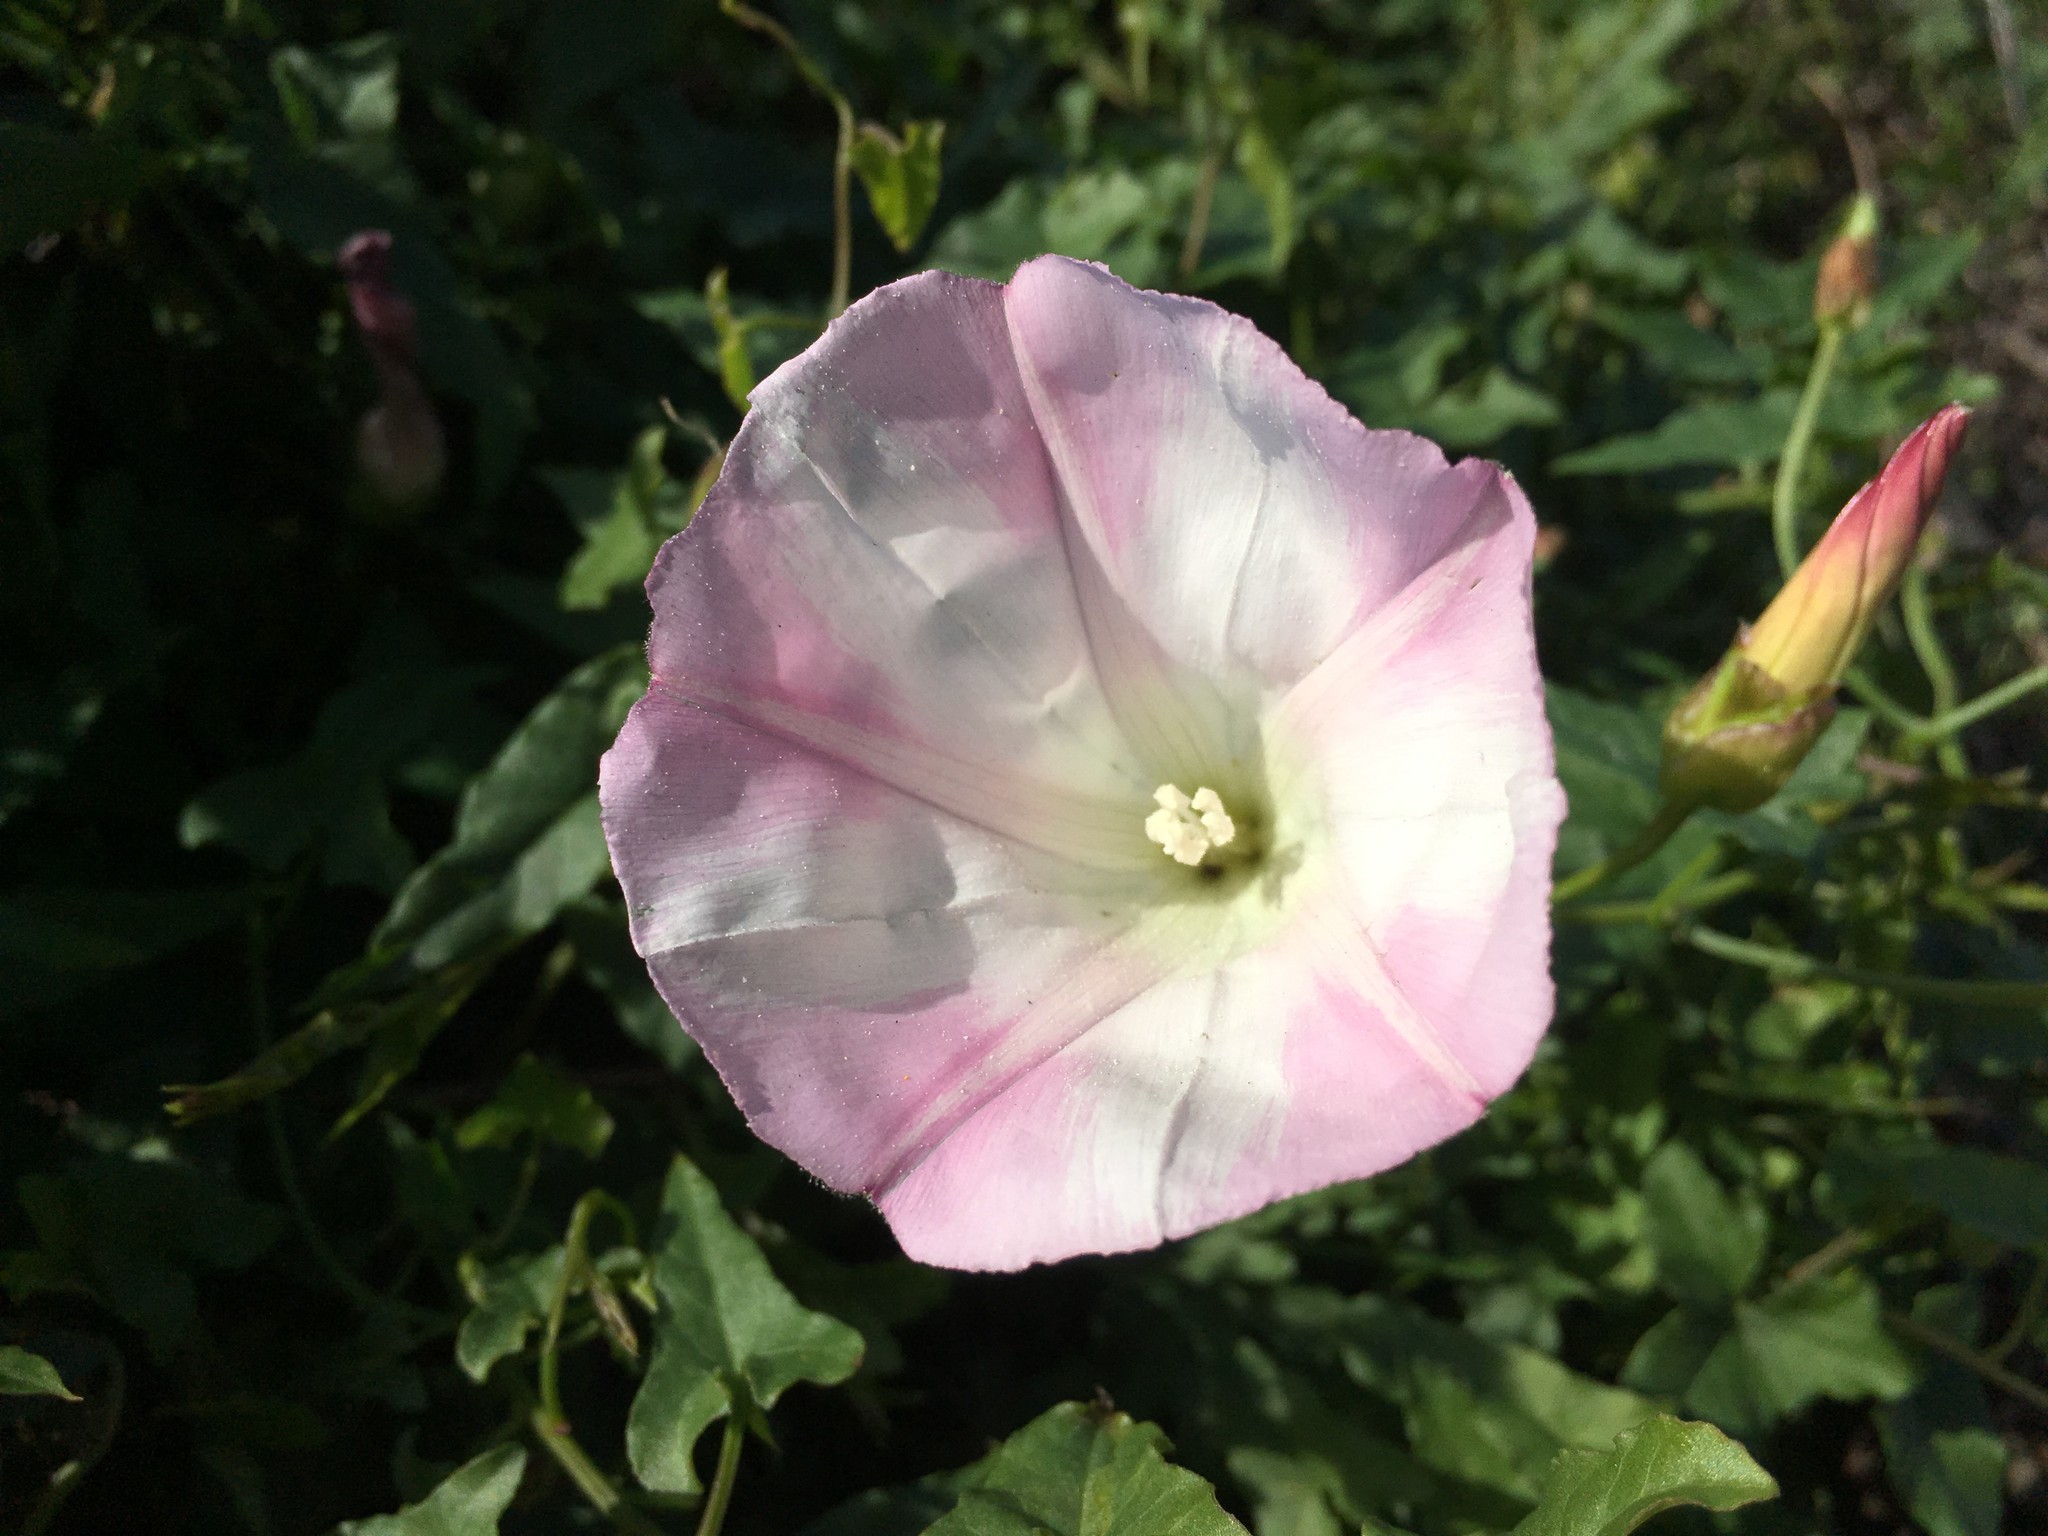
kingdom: Plantae
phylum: Tracheophyta
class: Magnoliopsida
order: Solanales
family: Convolvulaceae
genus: Calystegia
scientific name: Calystegia macrostegia
